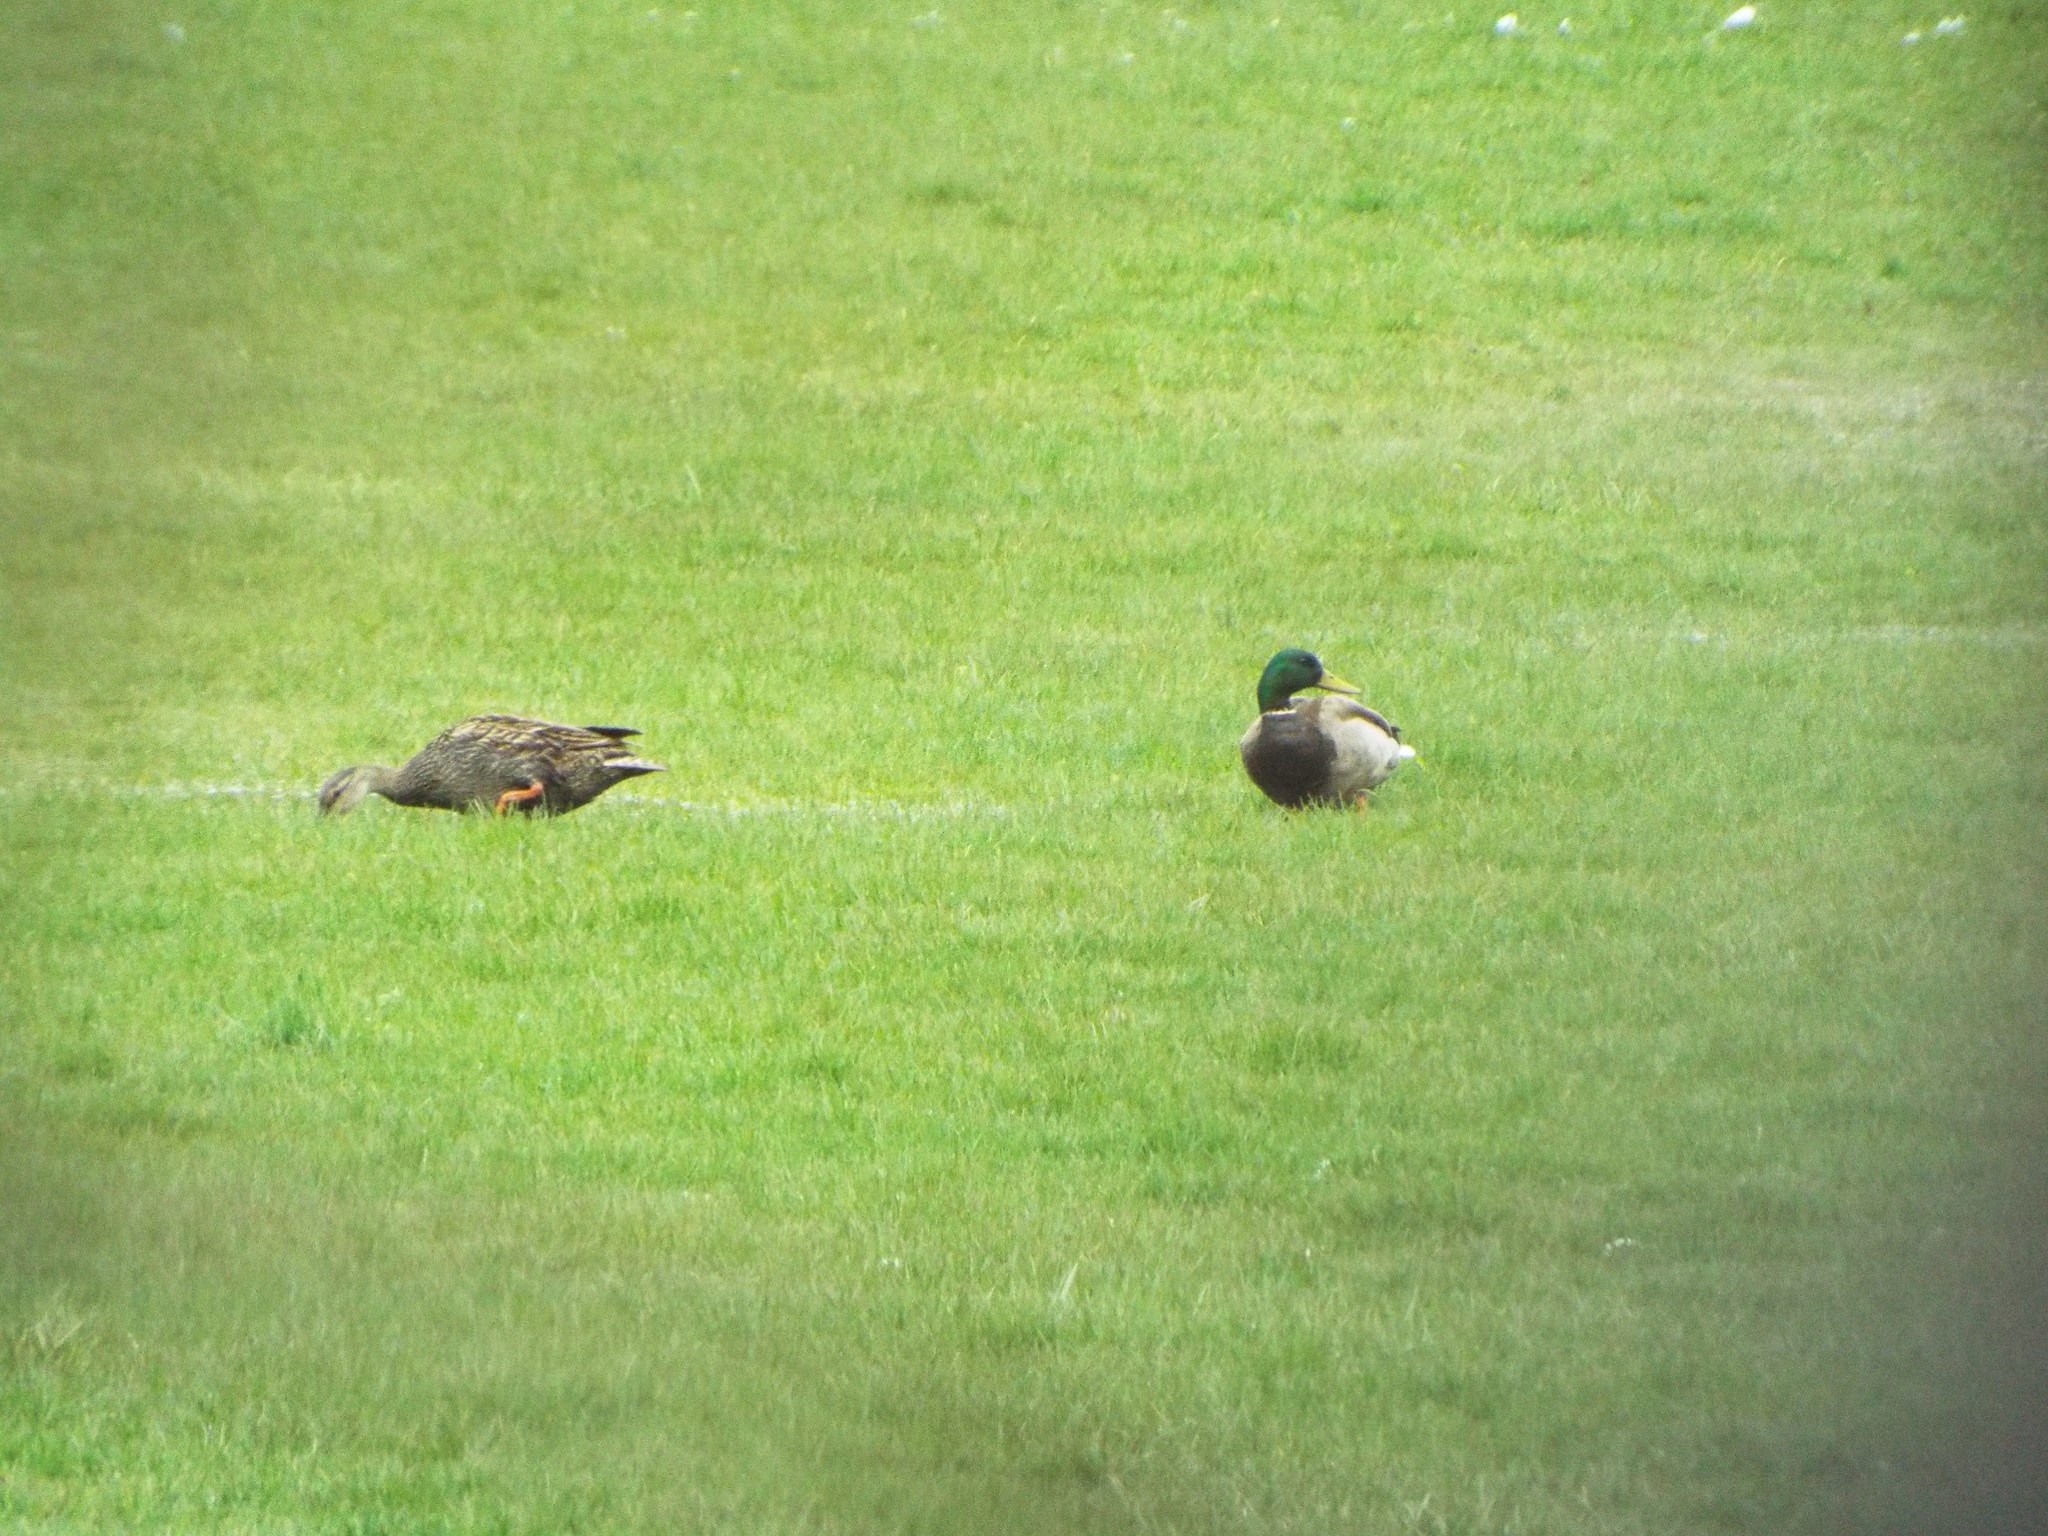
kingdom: Animalia
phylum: Chordata
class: Aves
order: Anseriformes
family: Anatidae
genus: Anas
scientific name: Anas platyrhynchos
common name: Mallard
